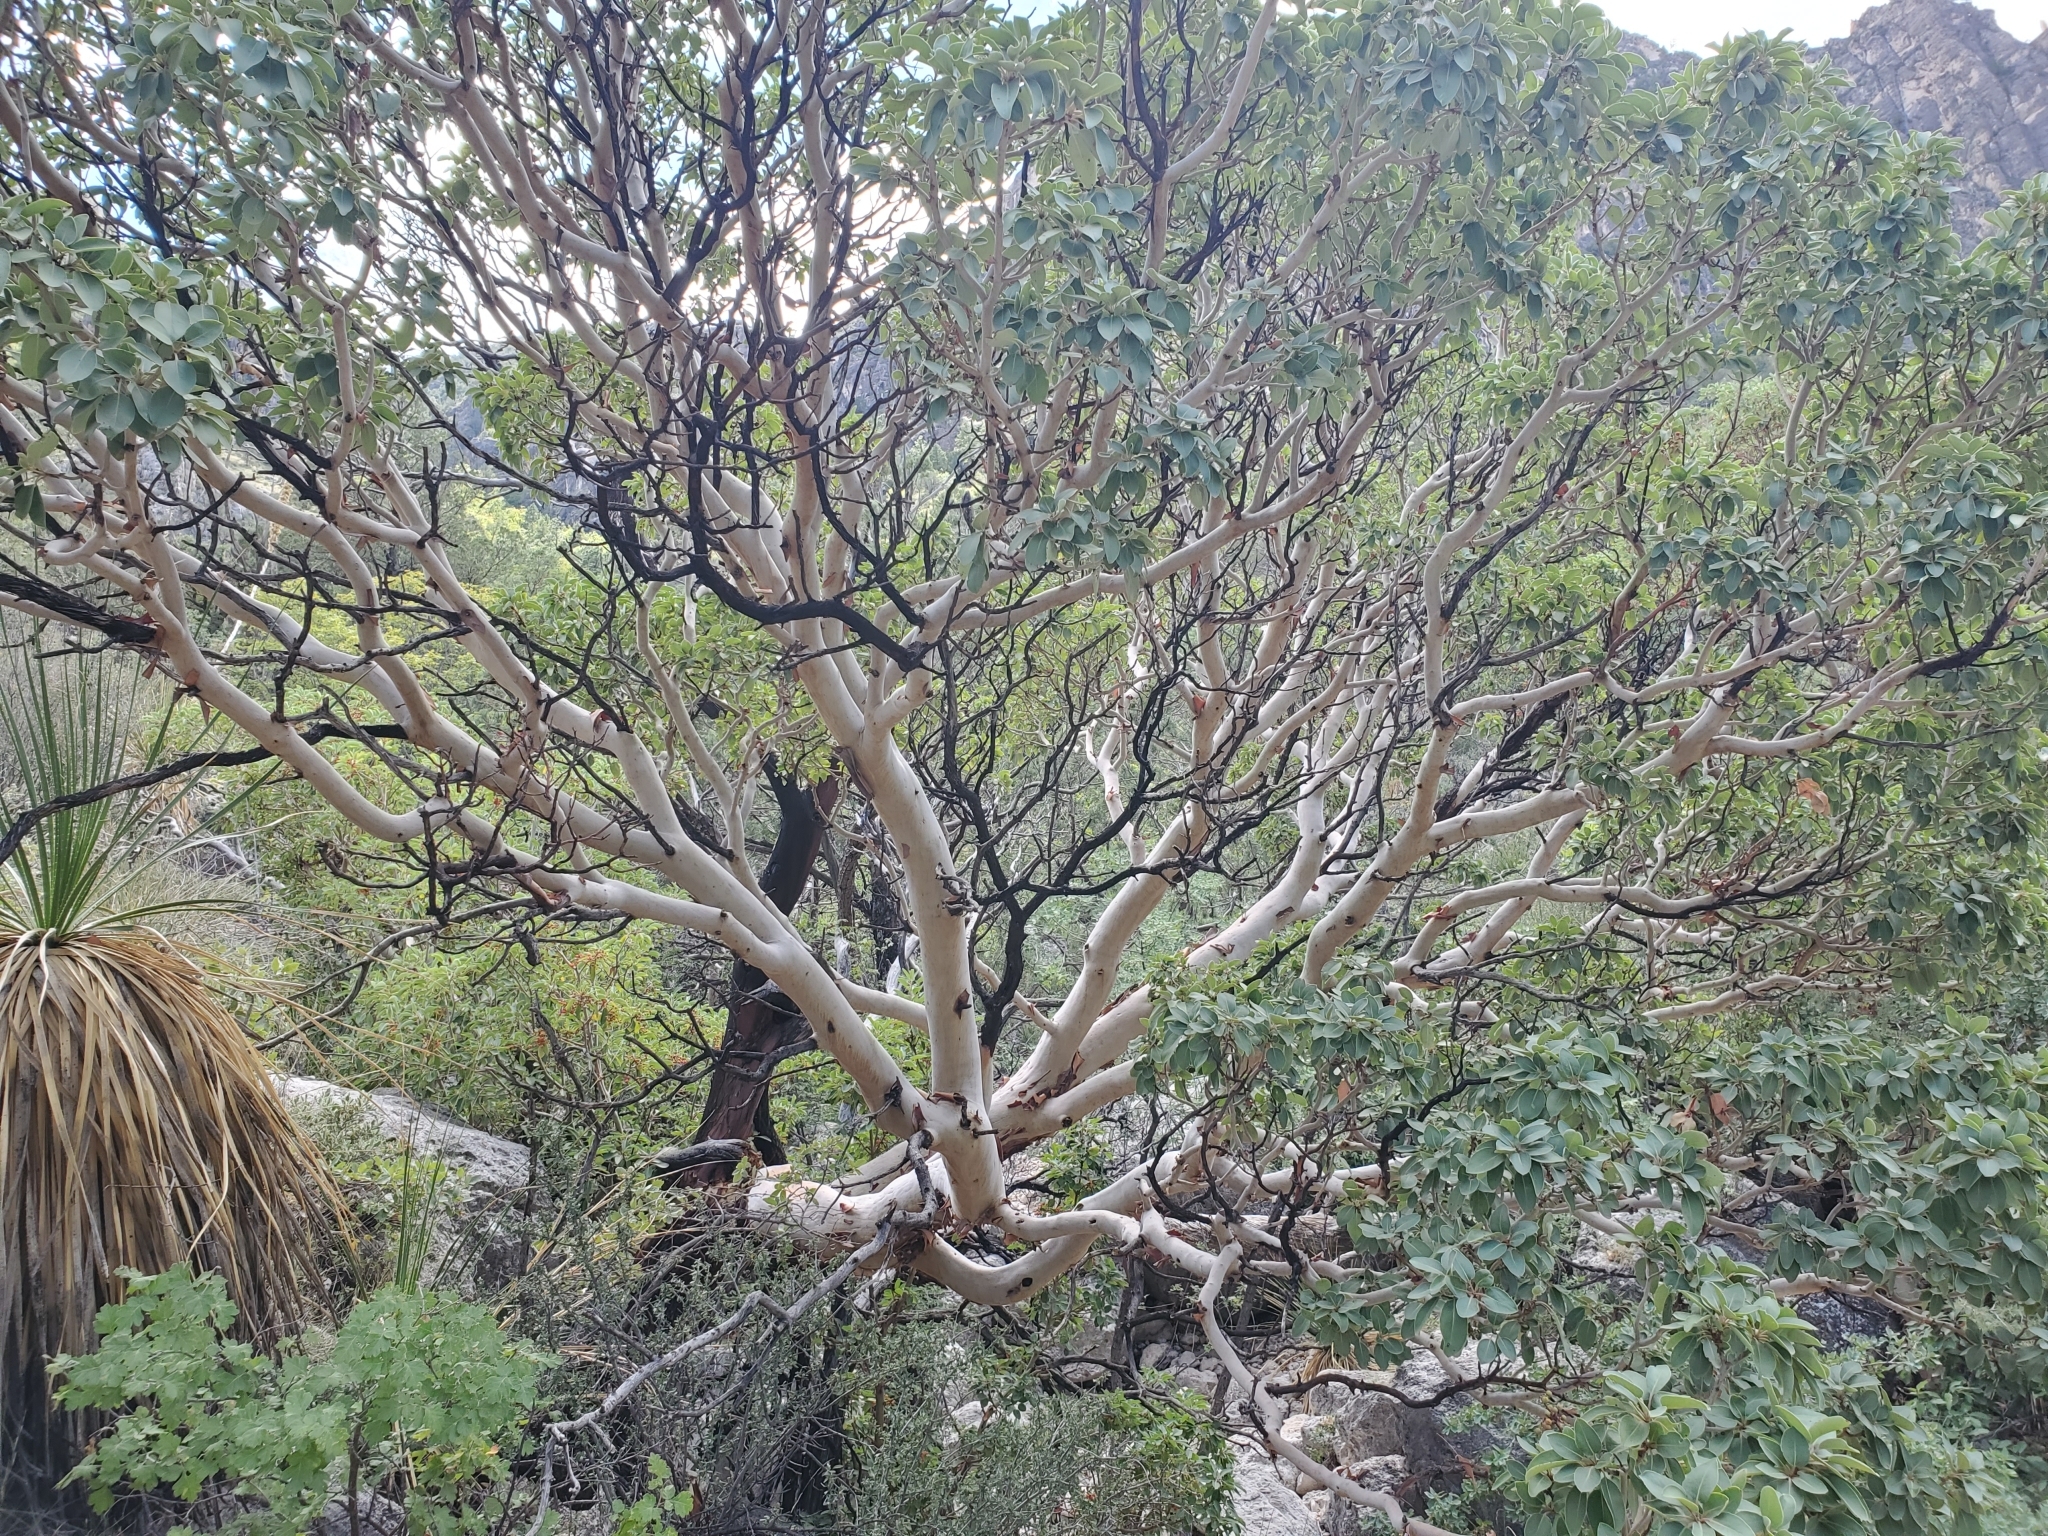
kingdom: Plantae
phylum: Tracheophyta
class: Magnoliopsida
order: Ericales
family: Ericaceae
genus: Arbutus
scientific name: Arbutus xalapensis
